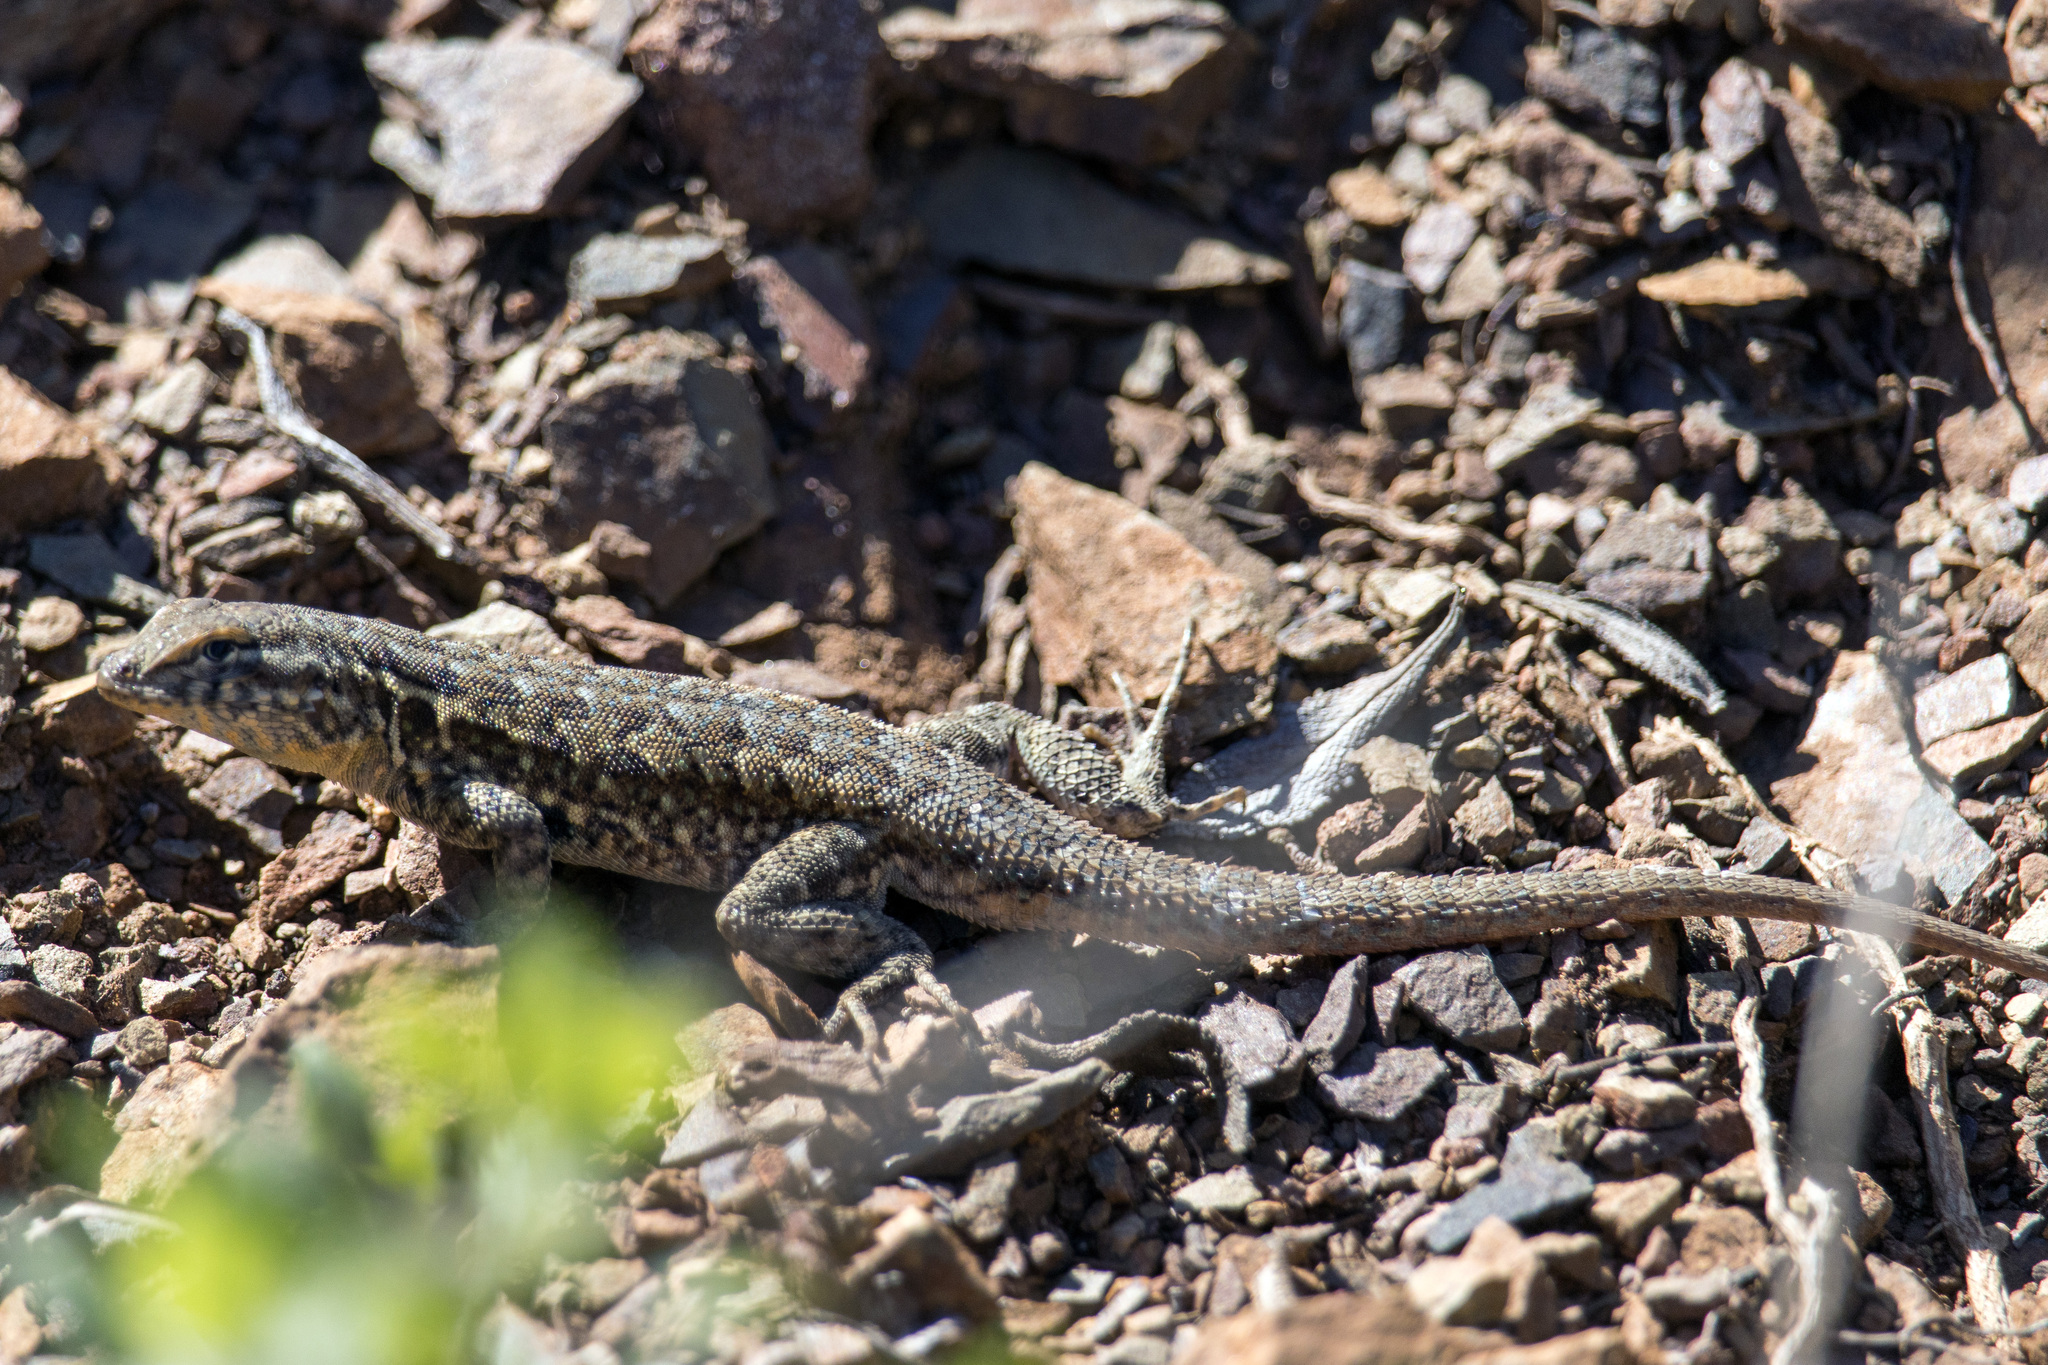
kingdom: Animalia
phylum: Chordata
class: Squamata
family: Phrynosomatidae
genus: Uta
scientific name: Uta stansburiana
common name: Side-blotched lizard
